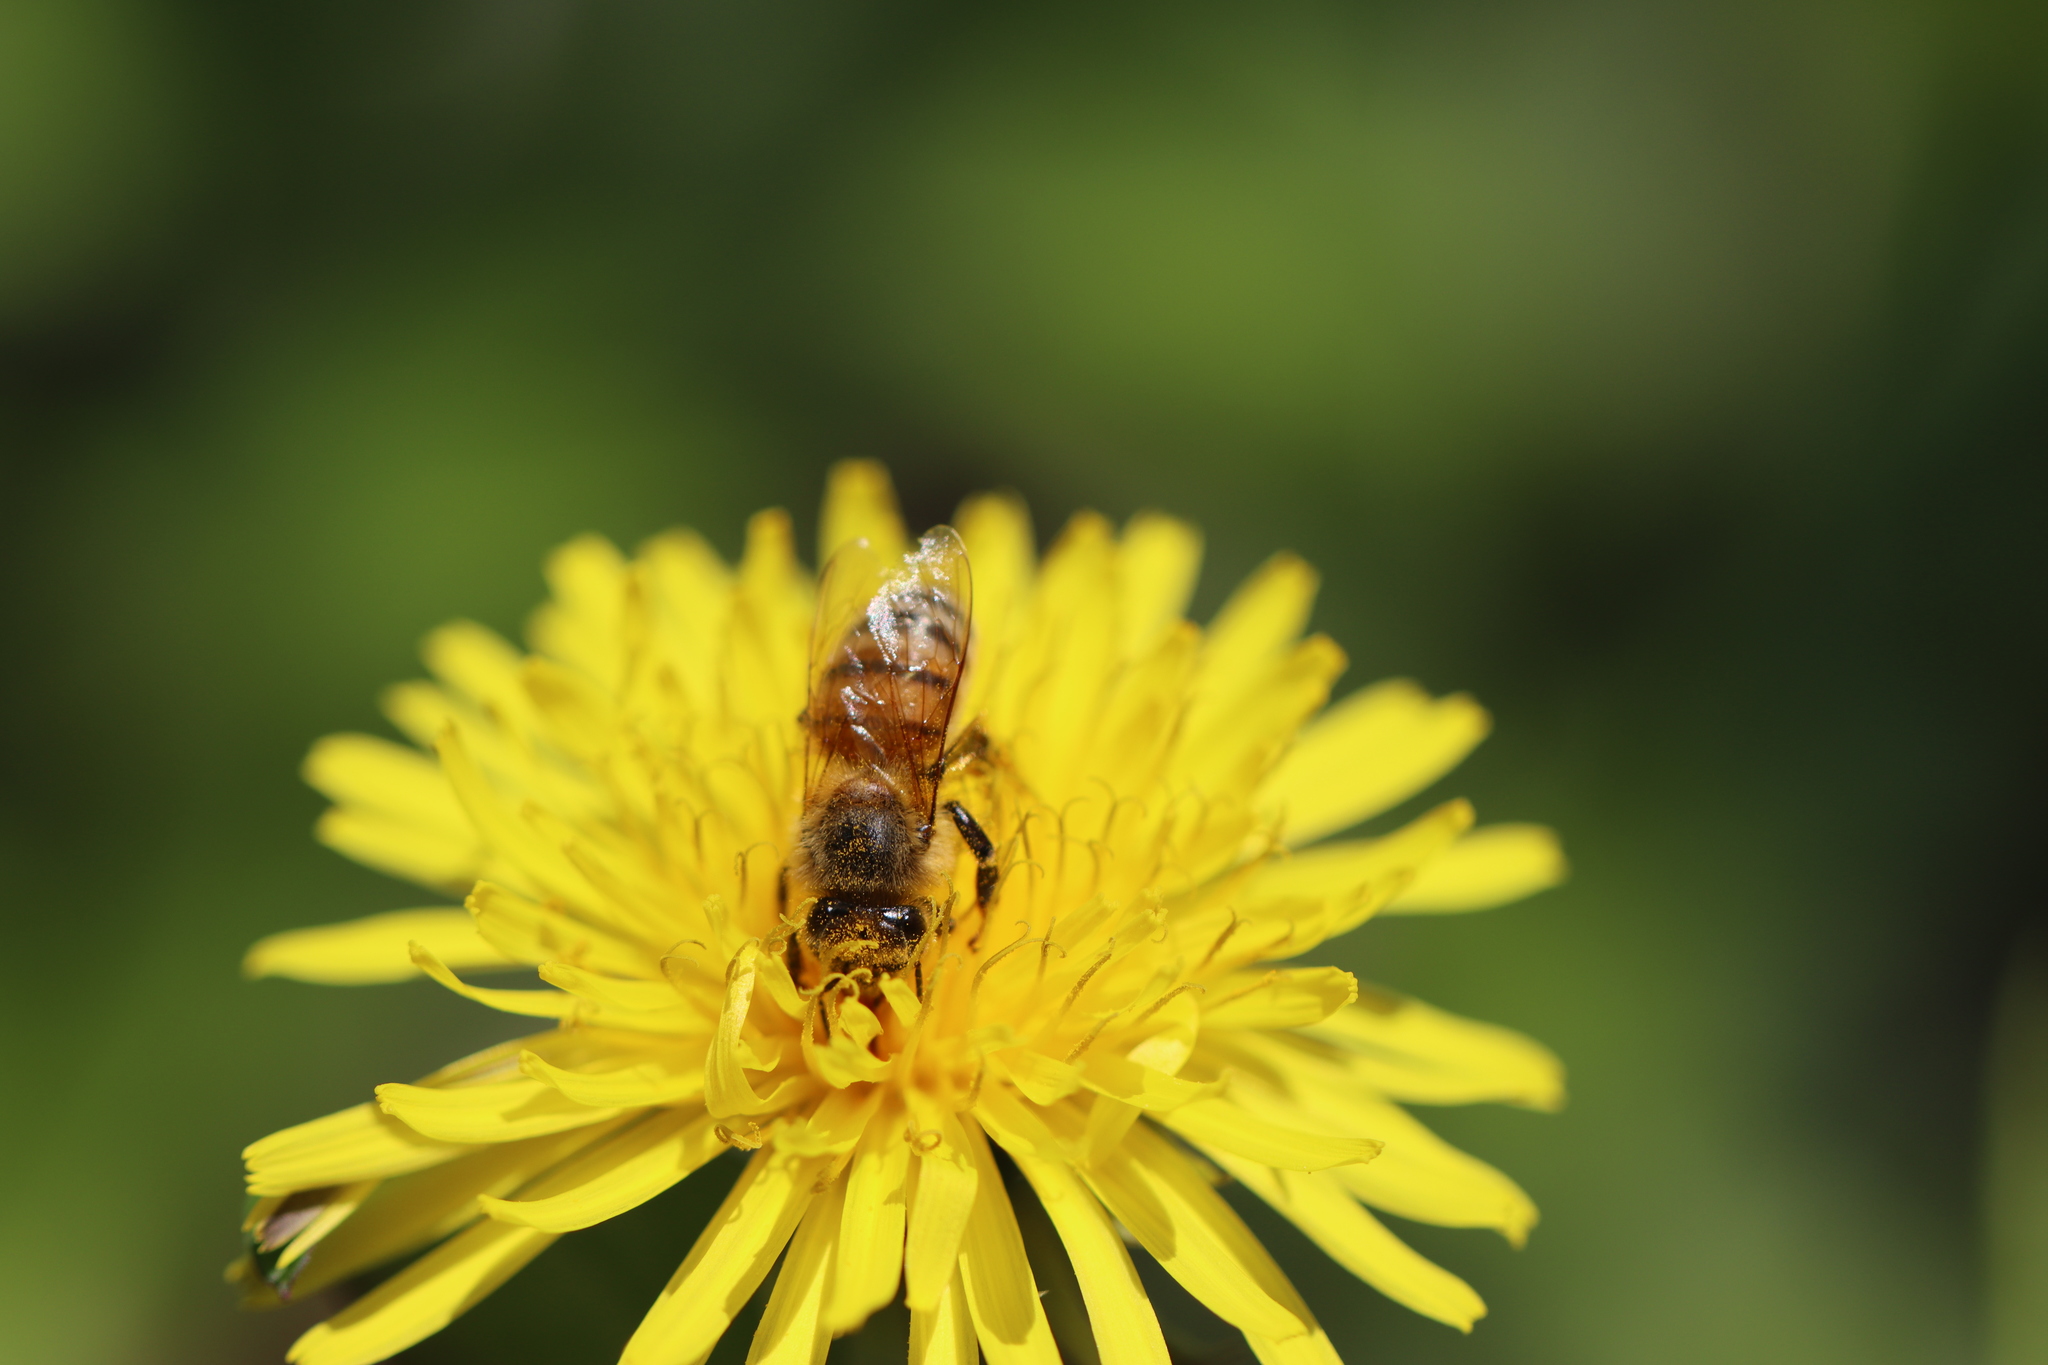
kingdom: Animalia
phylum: Arthropoda
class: Insecta
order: Hymenoptera
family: Apidae
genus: Apis
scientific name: Apis mellifera
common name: Honey bee
